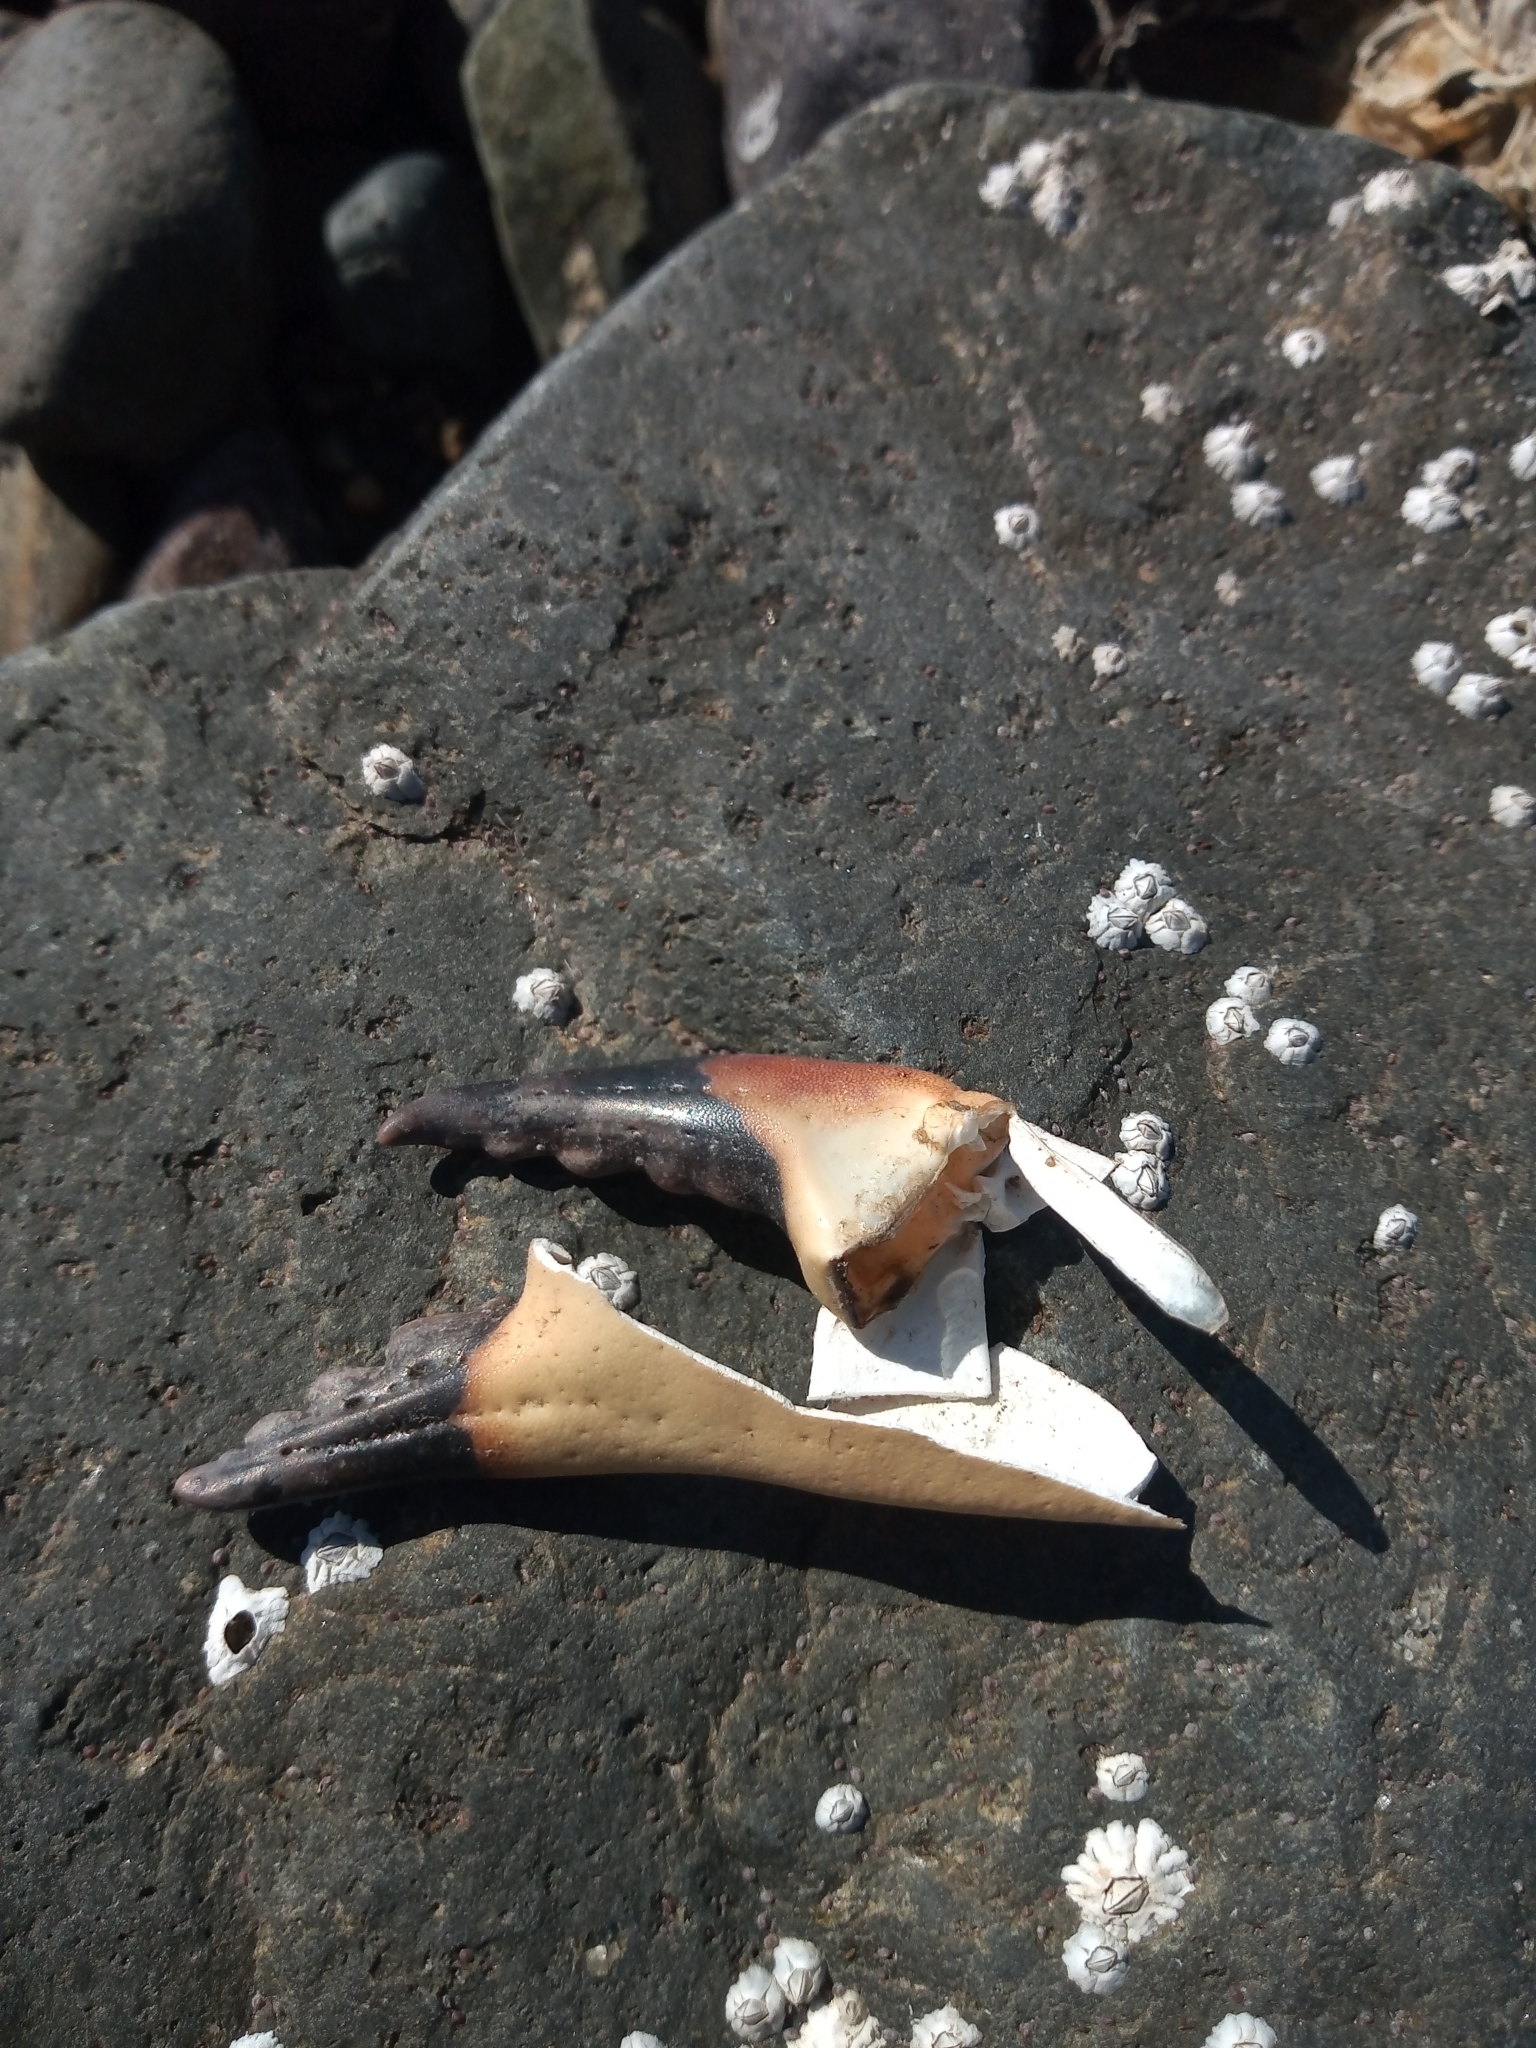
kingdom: Animalia
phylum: Arthropoda
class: Malacostraca
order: Decapoda
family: Cancridae
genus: Cancer
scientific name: Cancer pagurus
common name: Edible crab
